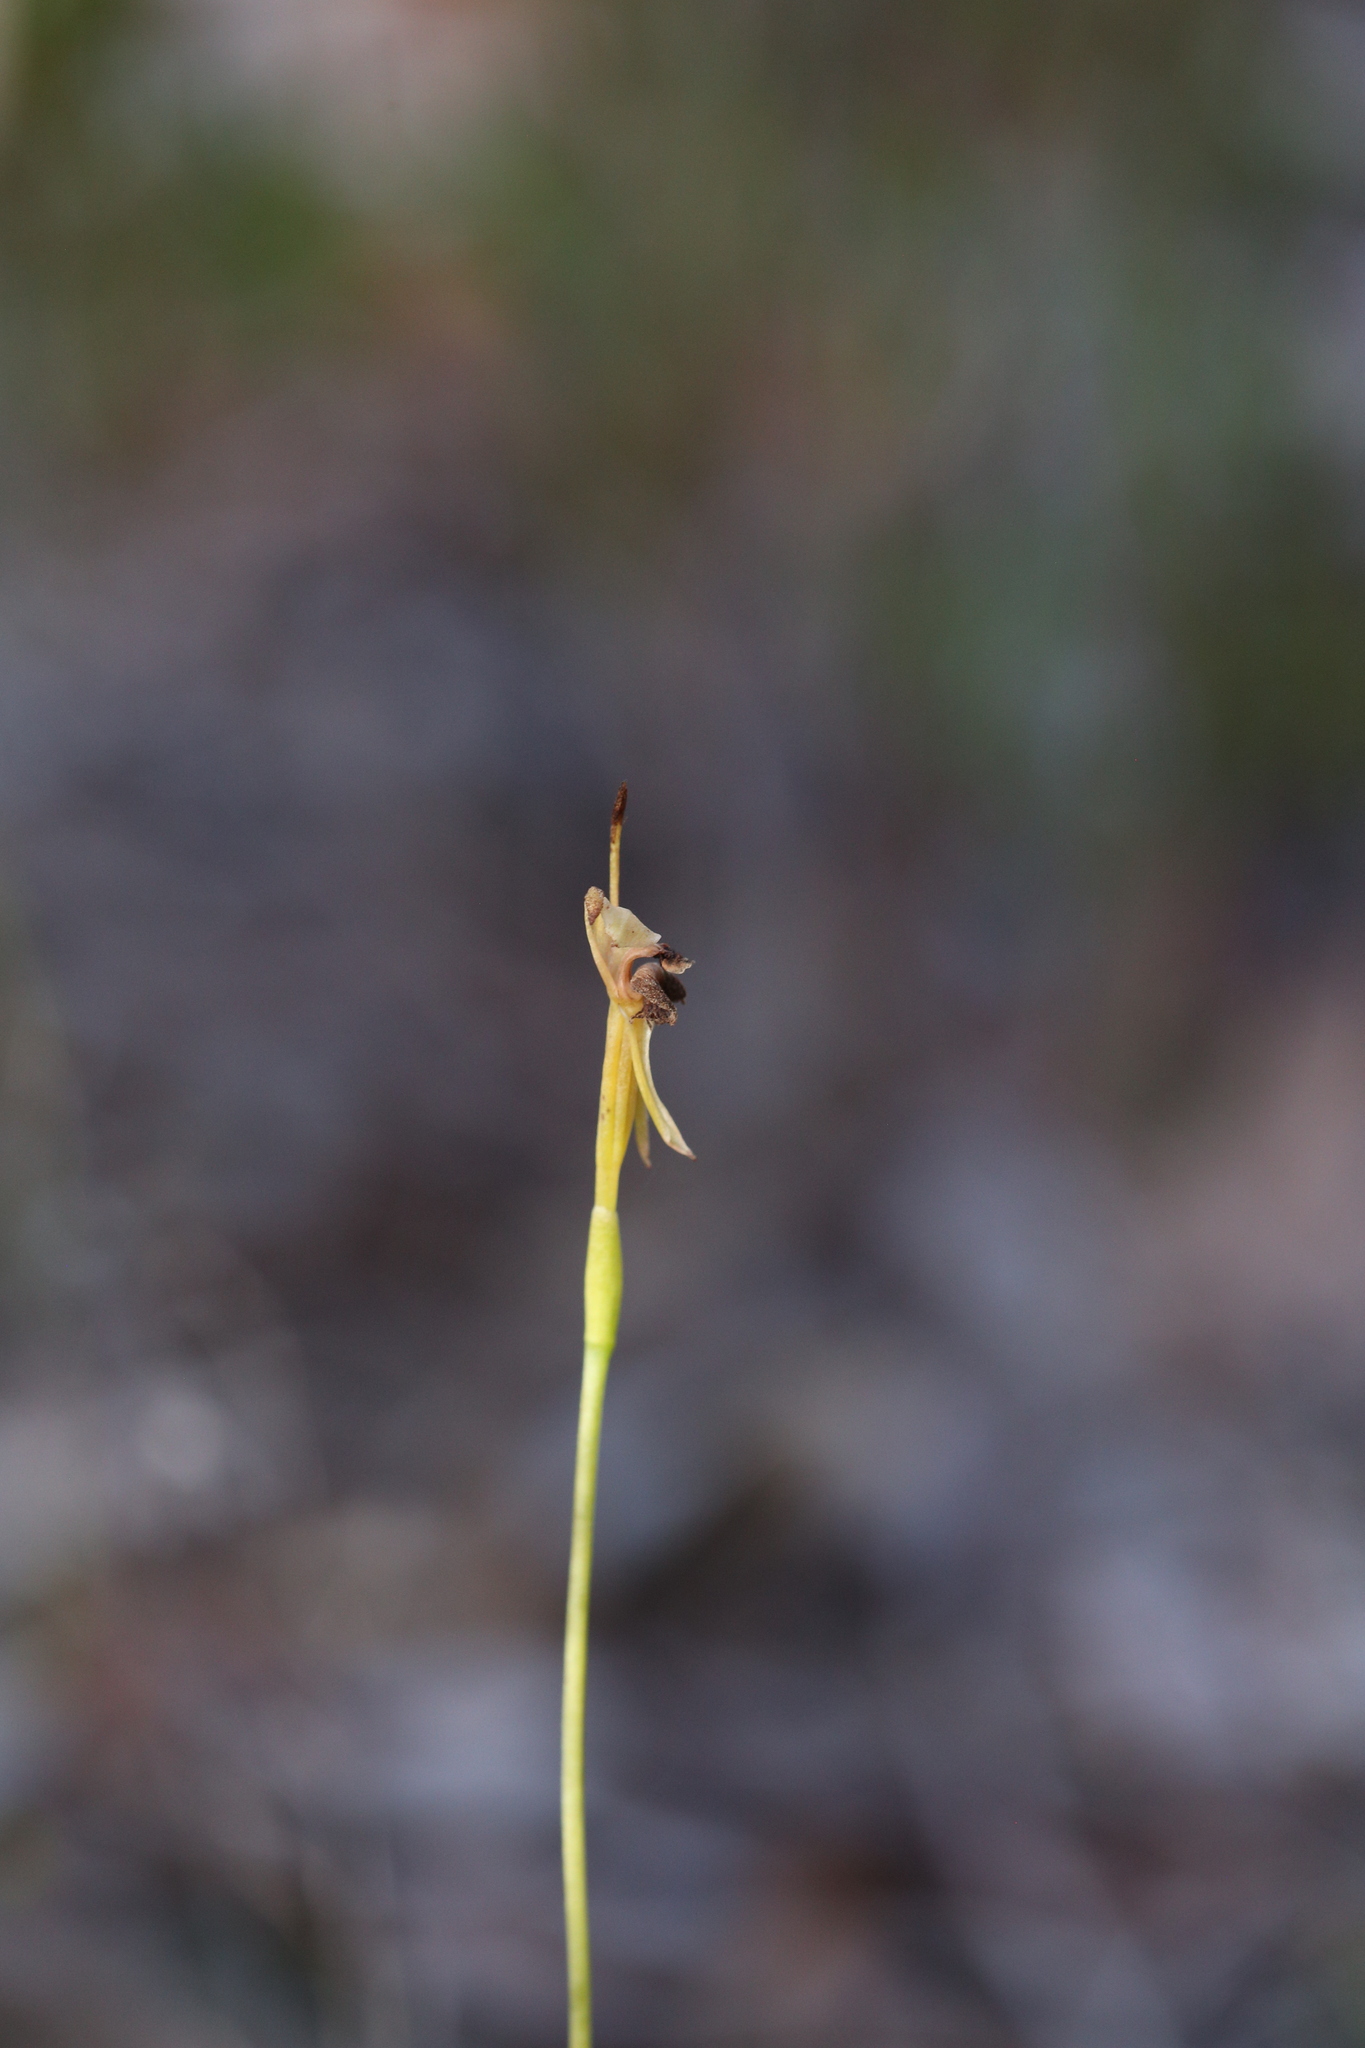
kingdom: Plantae
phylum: Tracheophyta
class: Liliopsida
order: Asparagales
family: Orchidaceae
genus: Leporella
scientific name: Leporella fimbriata
